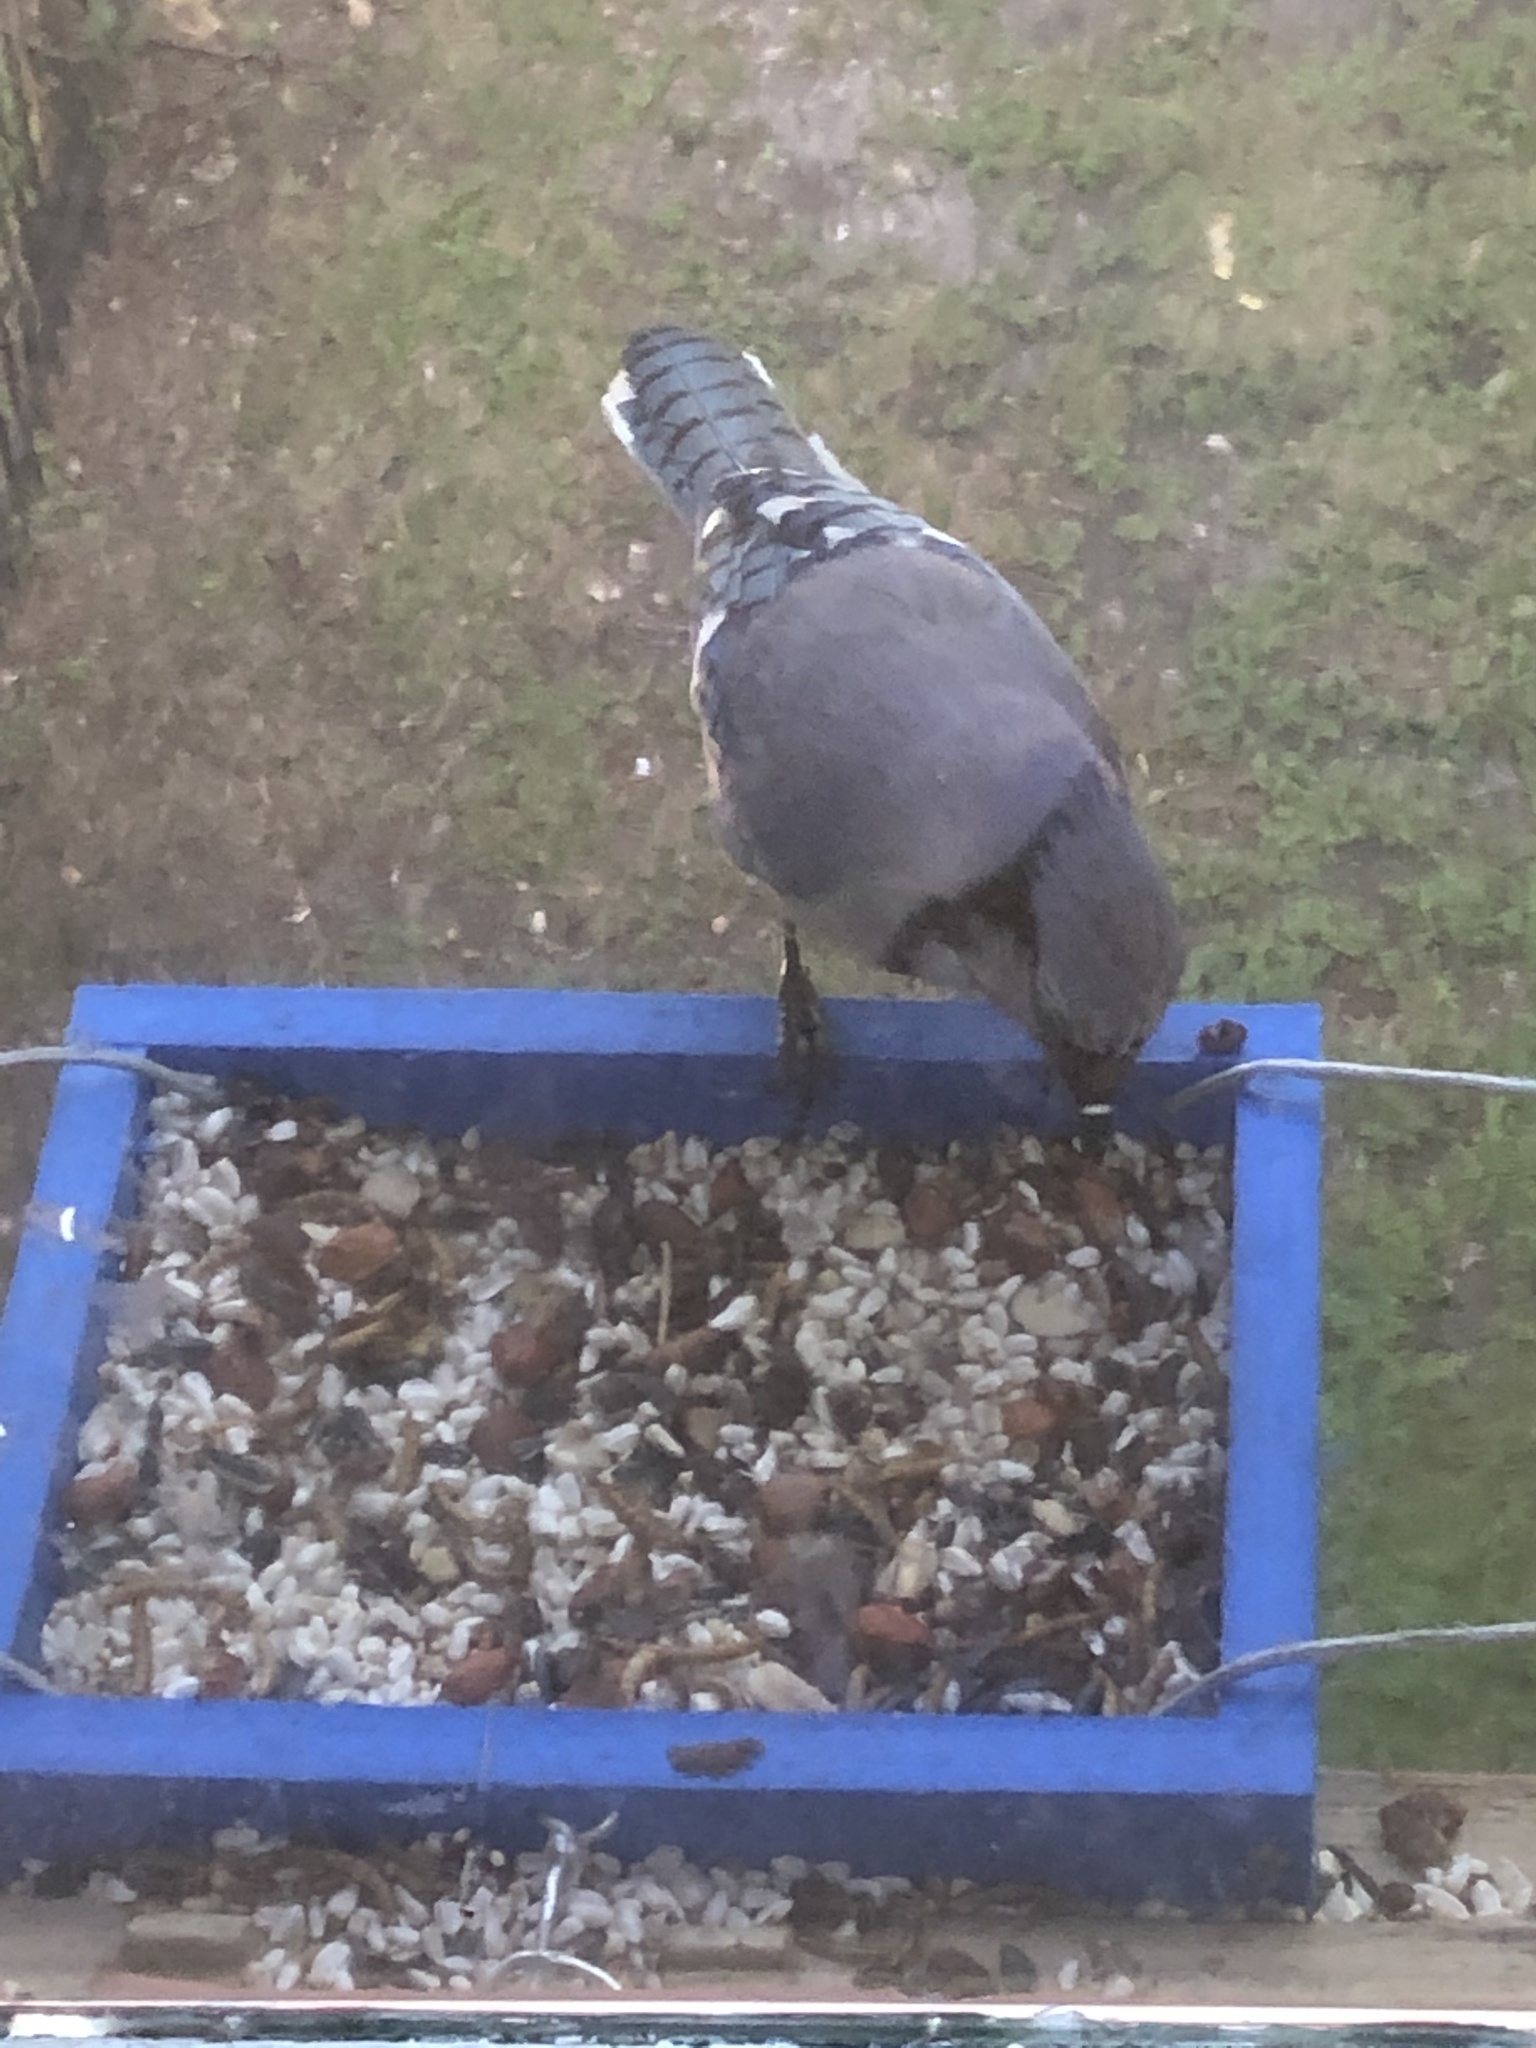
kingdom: Animalia
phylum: Chordata
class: Aves
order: Passeriformes
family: Corvidae
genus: Cyanocitta
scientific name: Cyanocitta cristata
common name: Blue jay
